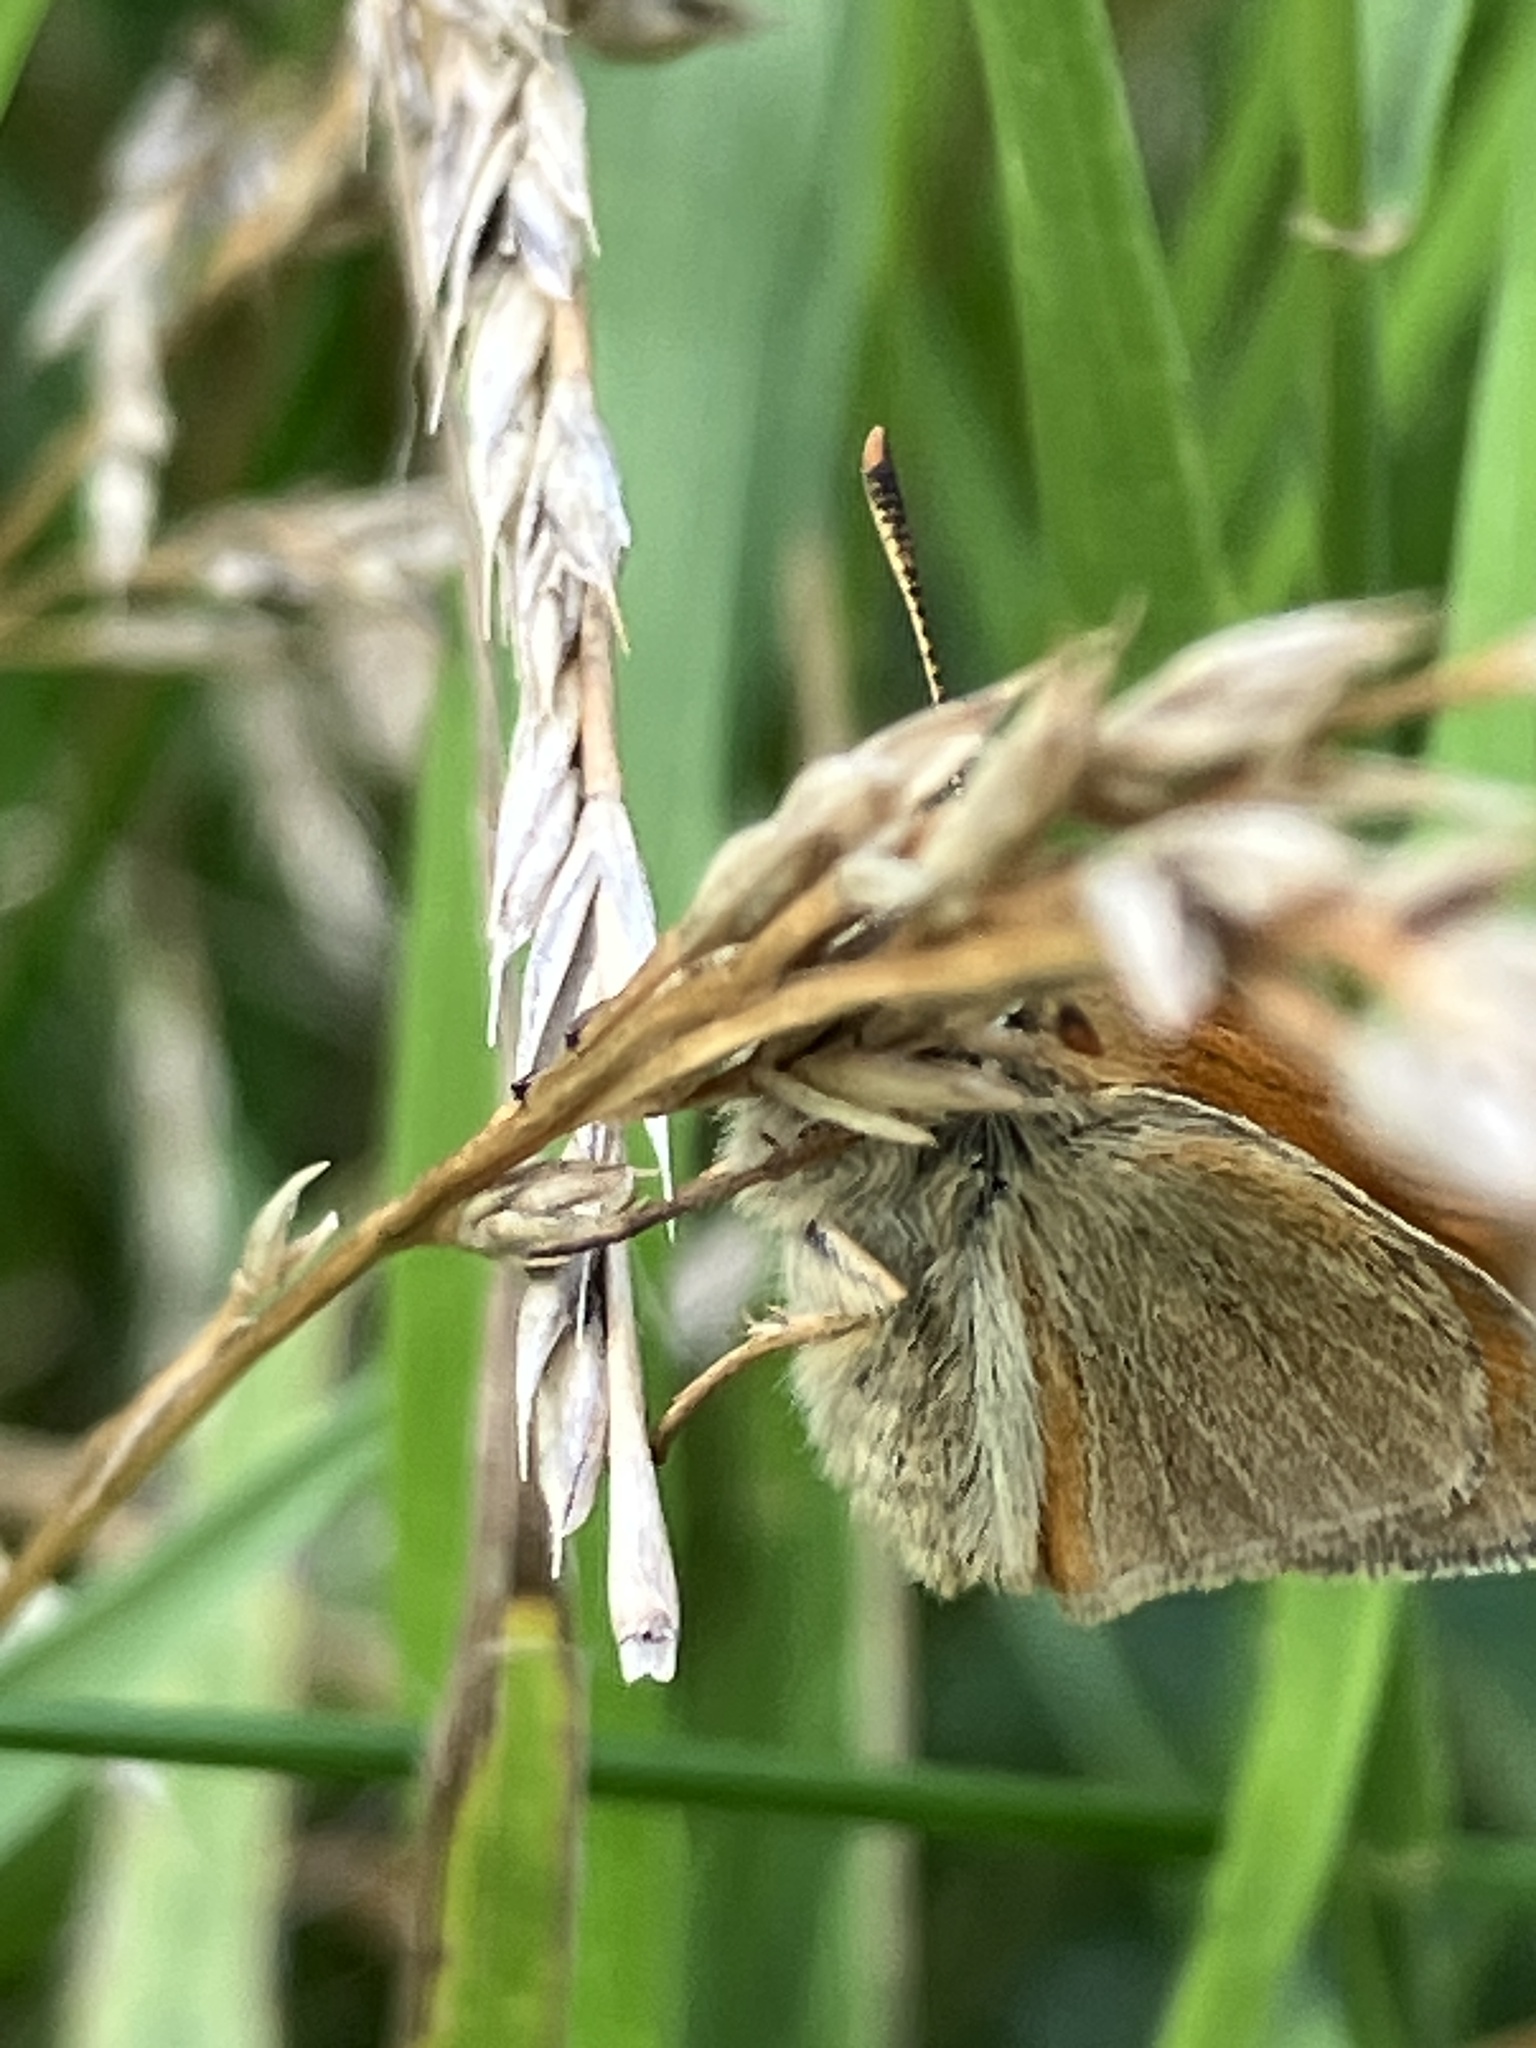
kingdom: Animalia
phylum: Arthropoda
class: Insecta
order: Lepidoptera
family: Hesperiidae
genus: Thymelicus
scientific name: Thymelicus sylvestris
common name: Small skipper
